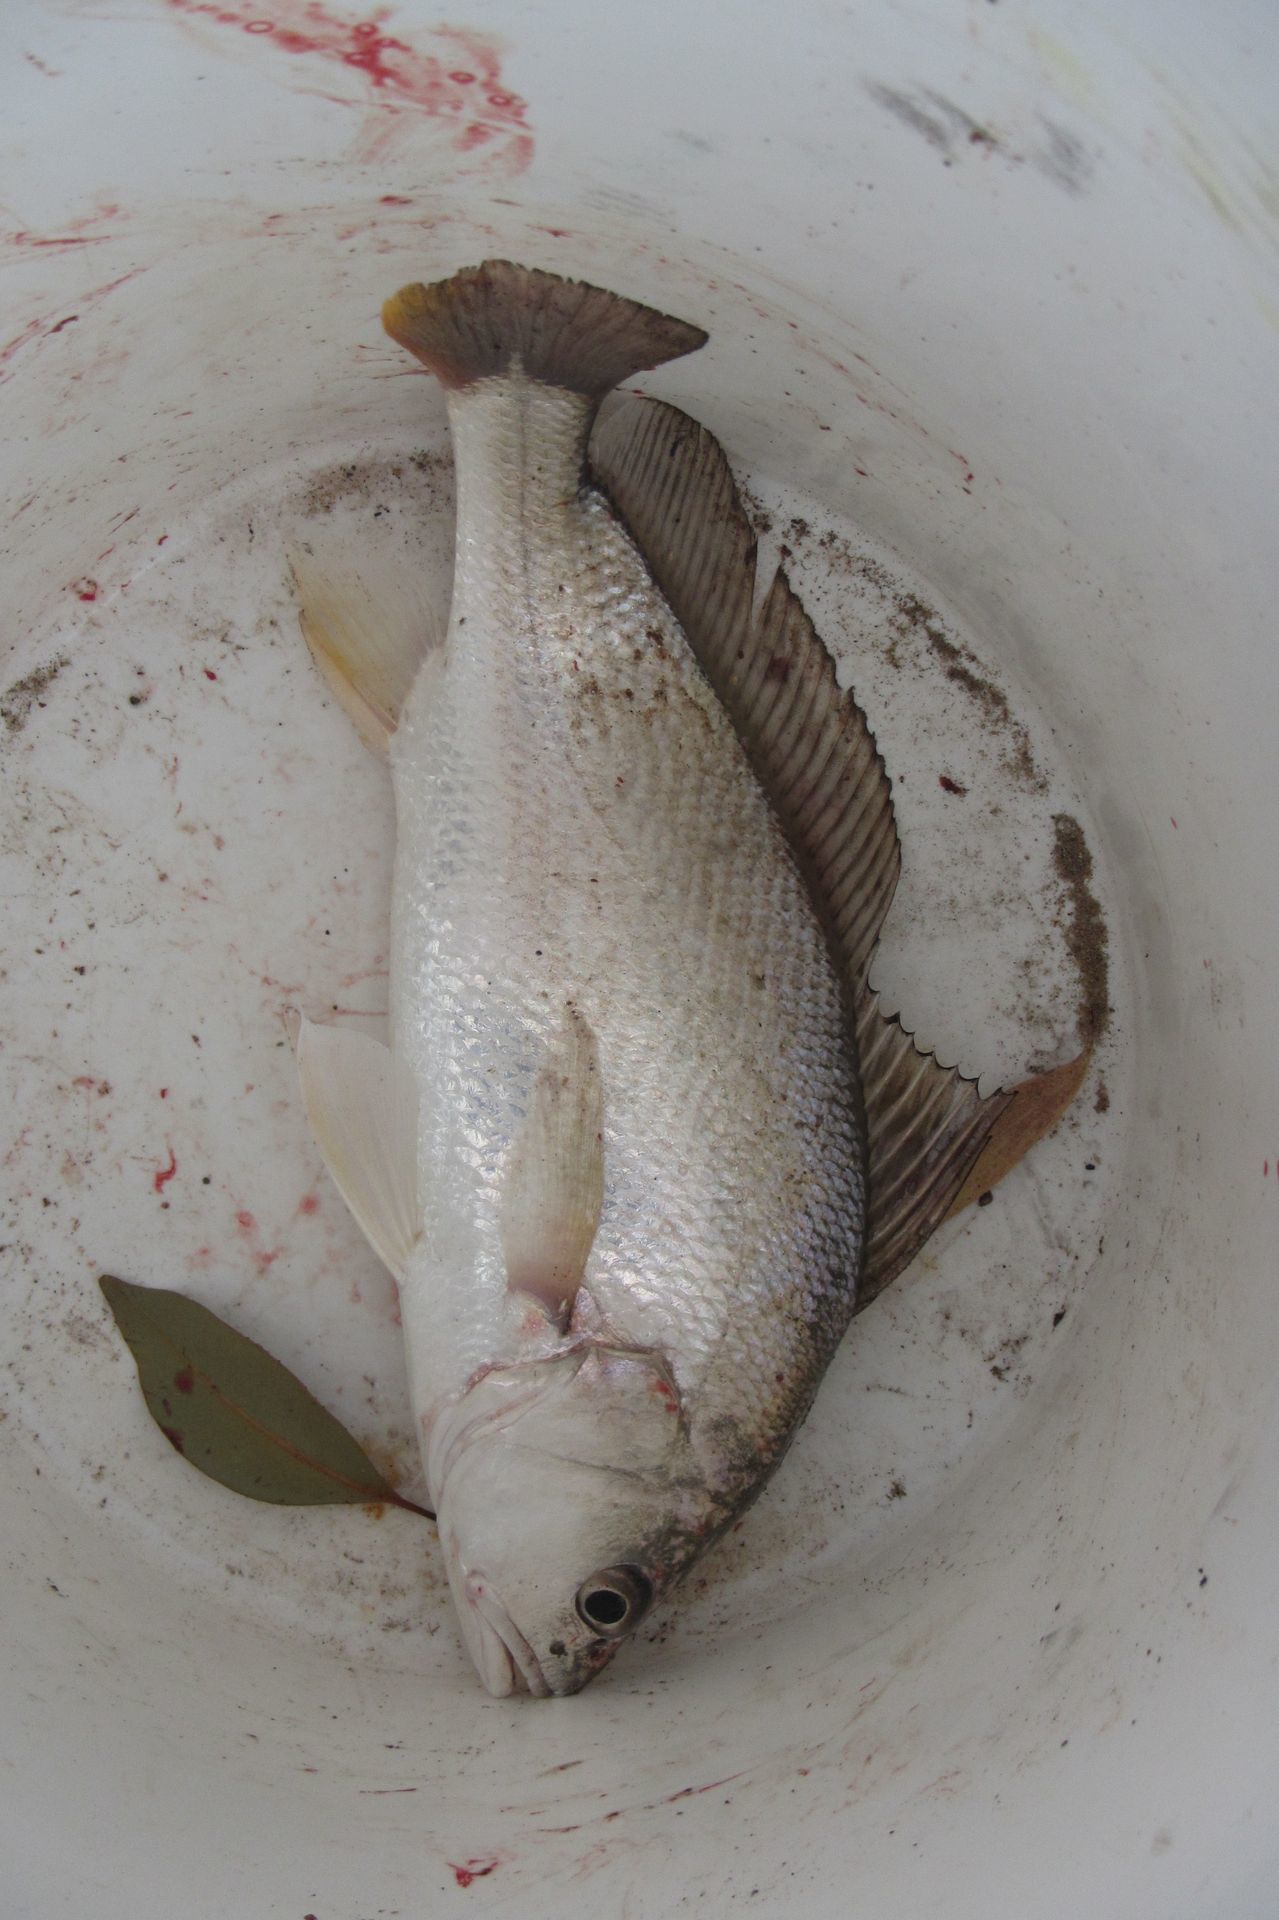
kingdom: Animalia
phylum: Chordata
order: Perciformes
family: Sciaenidae
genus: Nibea
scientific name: Nibea soldado
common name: Croaker
